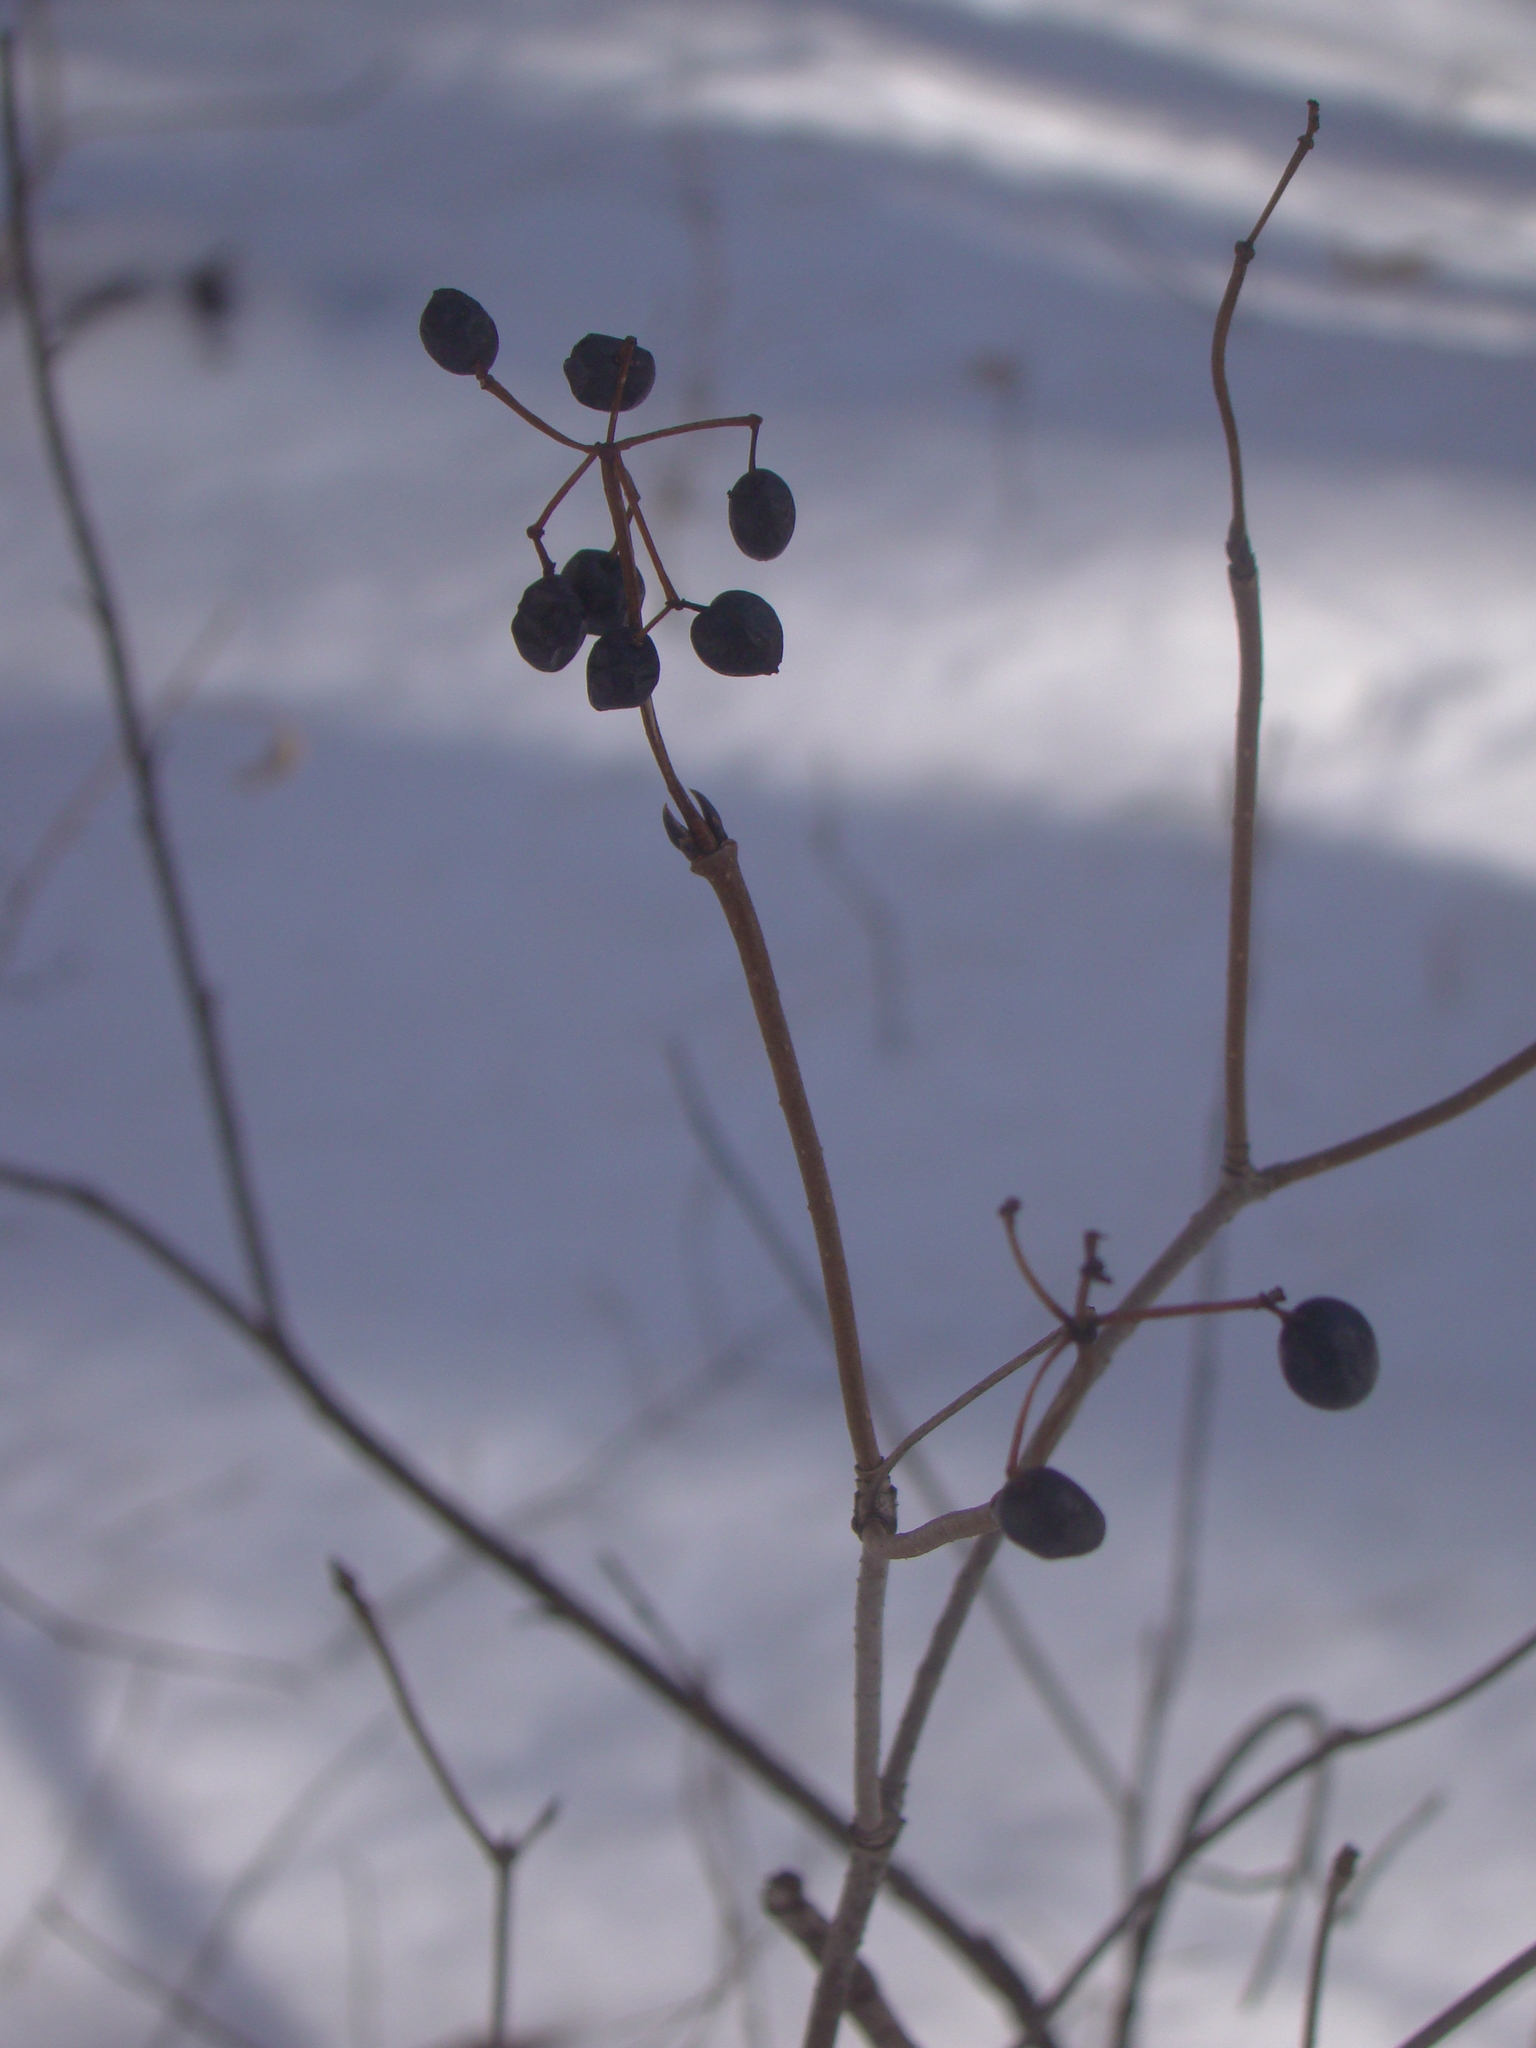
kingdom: Plantae
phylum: Tracheophyta
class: Magnoliopsida
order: Dipsacales
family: Viburnaceae
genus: Viburnum
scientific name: Viburnum acerifolium
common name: Dockmackie
